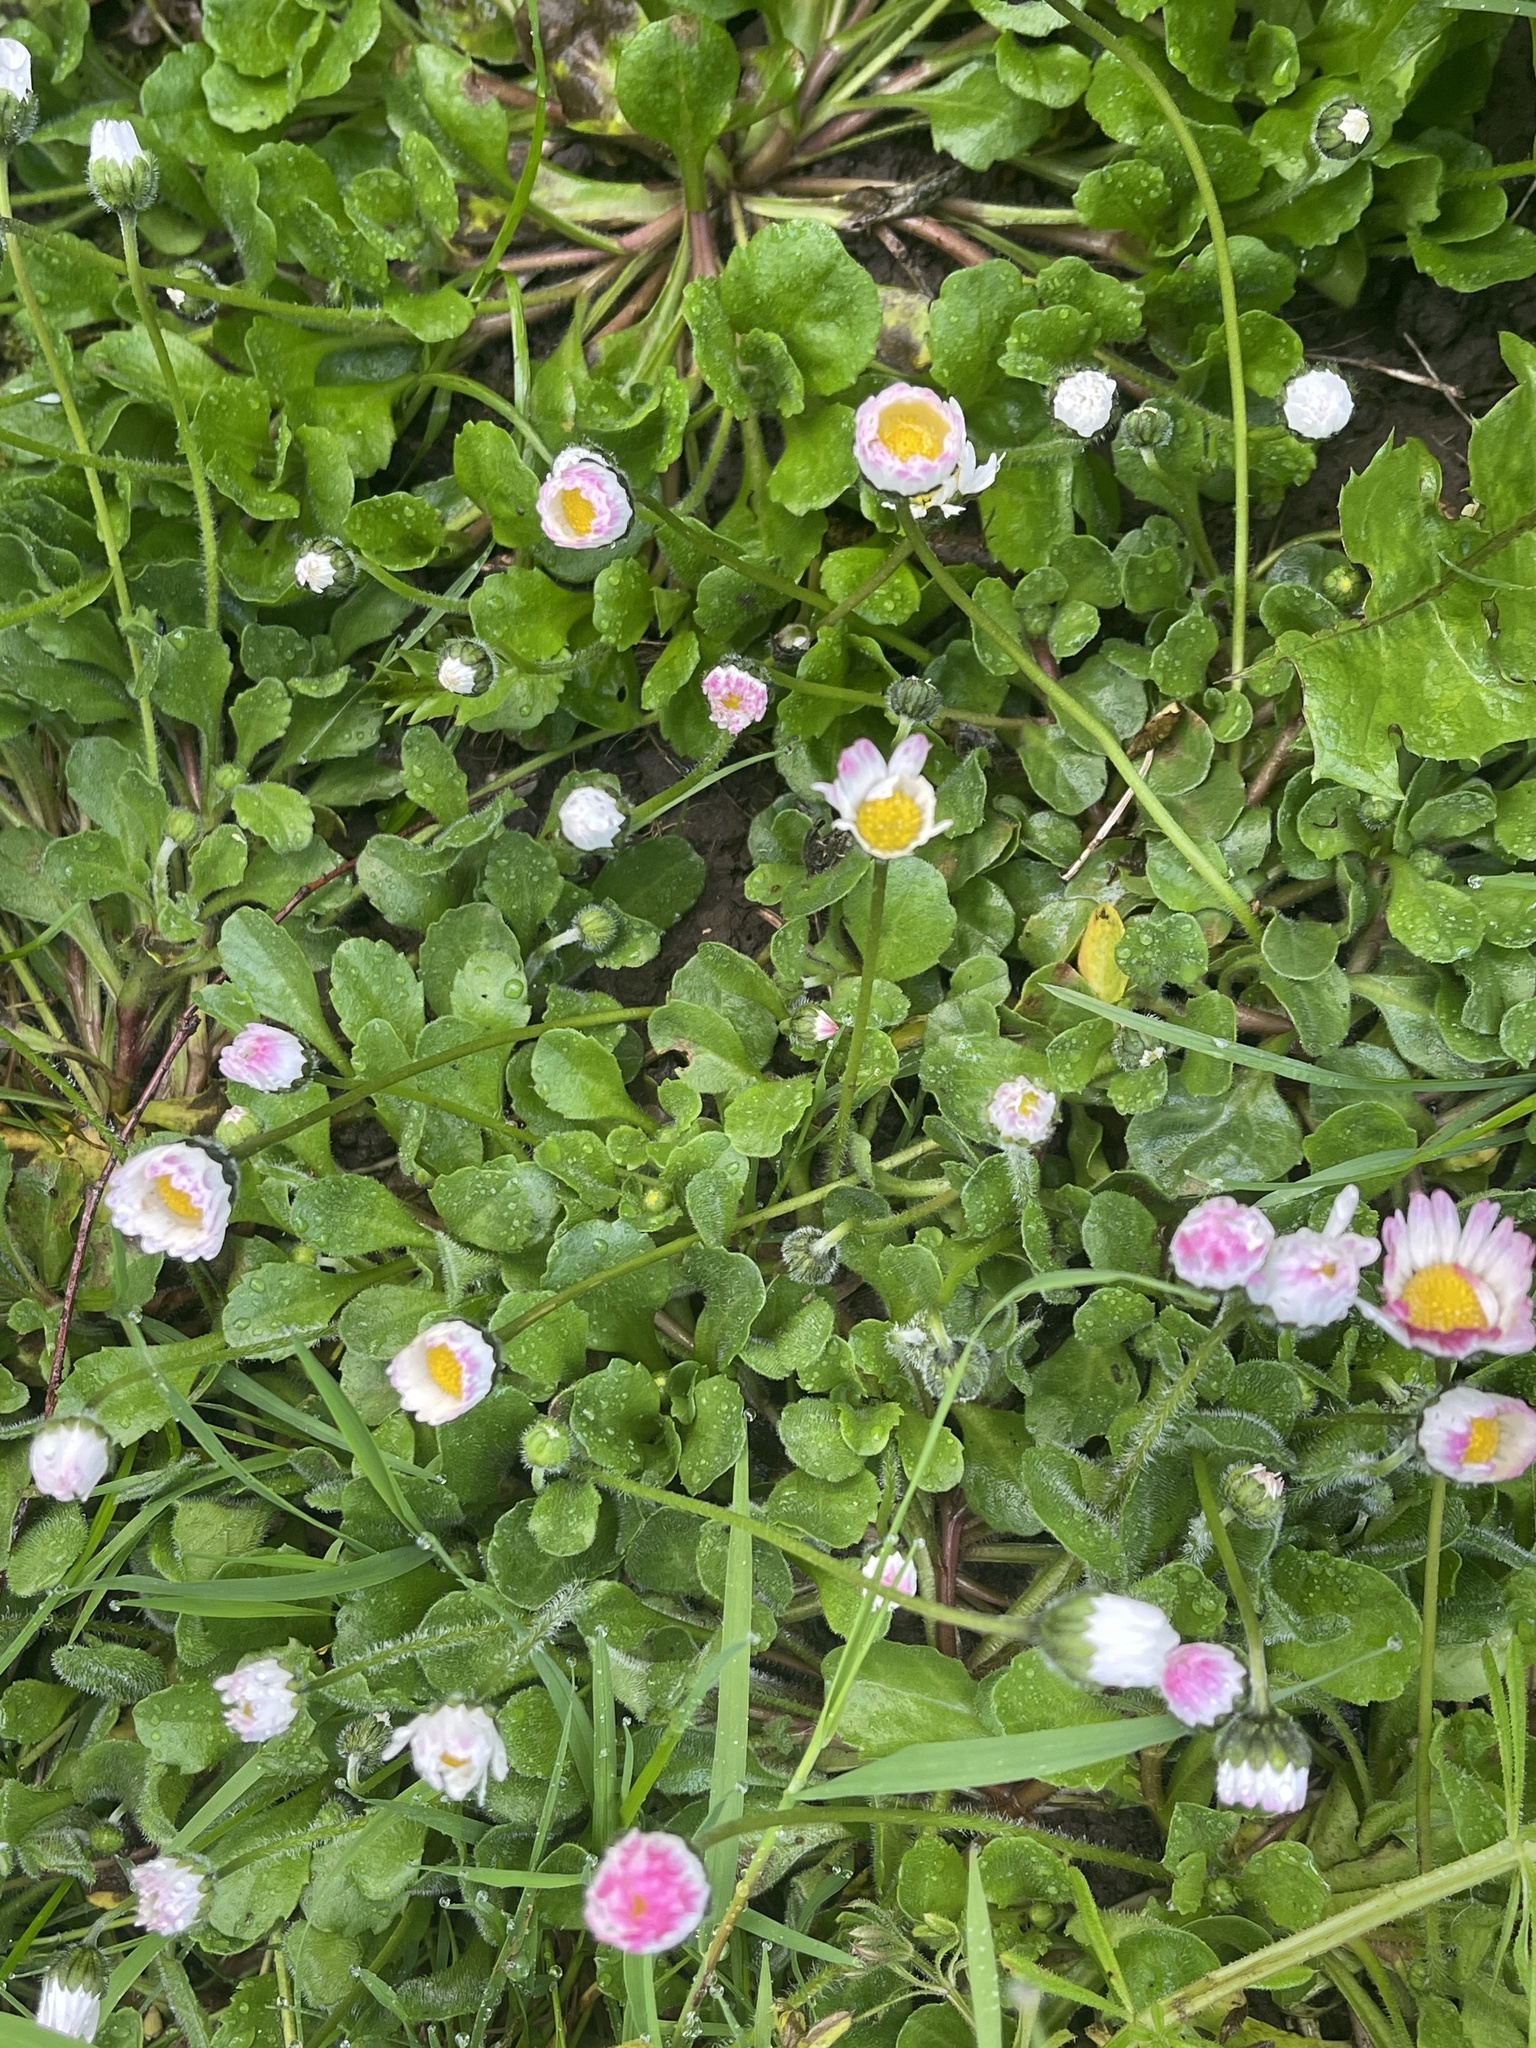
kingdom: Plantae
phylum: Tracheophyta
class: Magnoliopsida
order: Asterales
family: Asteraceae
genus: Bellis
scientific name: Bellis perennis
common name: Lawndaisy
